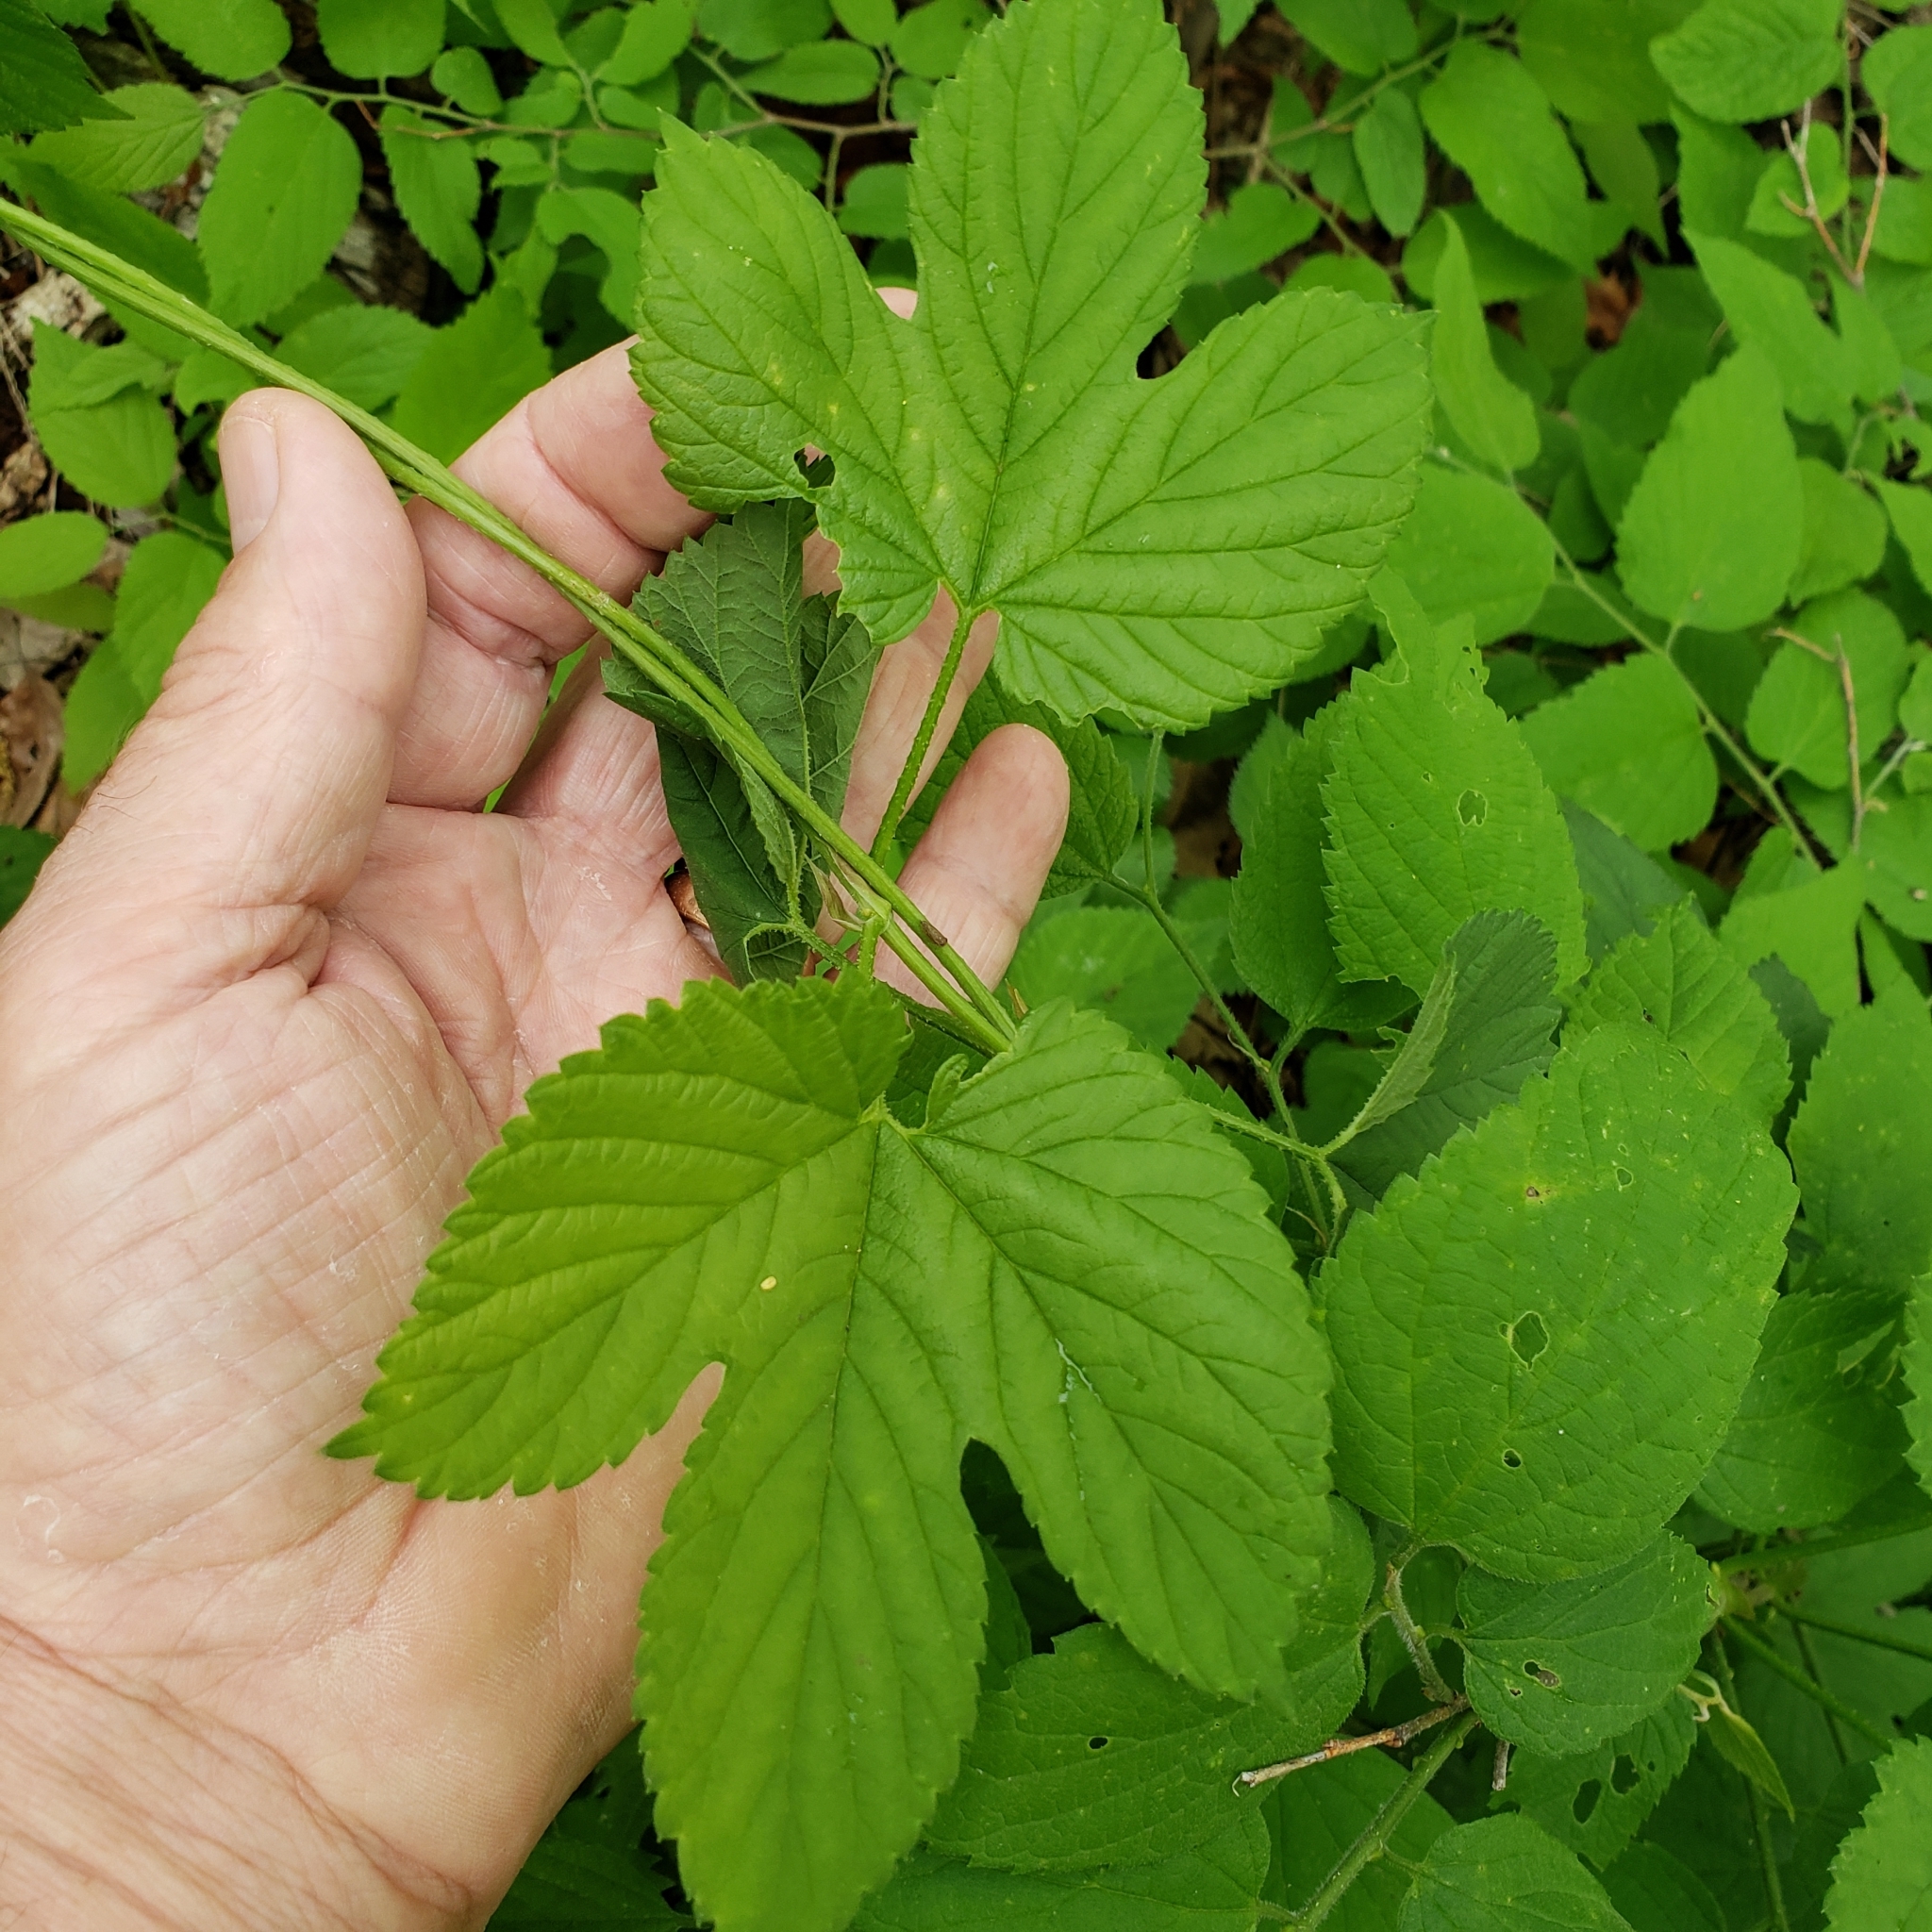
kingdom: Plantae
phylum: Tracheophyta
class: Magnoliopsida
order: Rosales
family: Cannabaceae
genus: Humulus
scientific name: Humulus lupulus
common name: Hop
